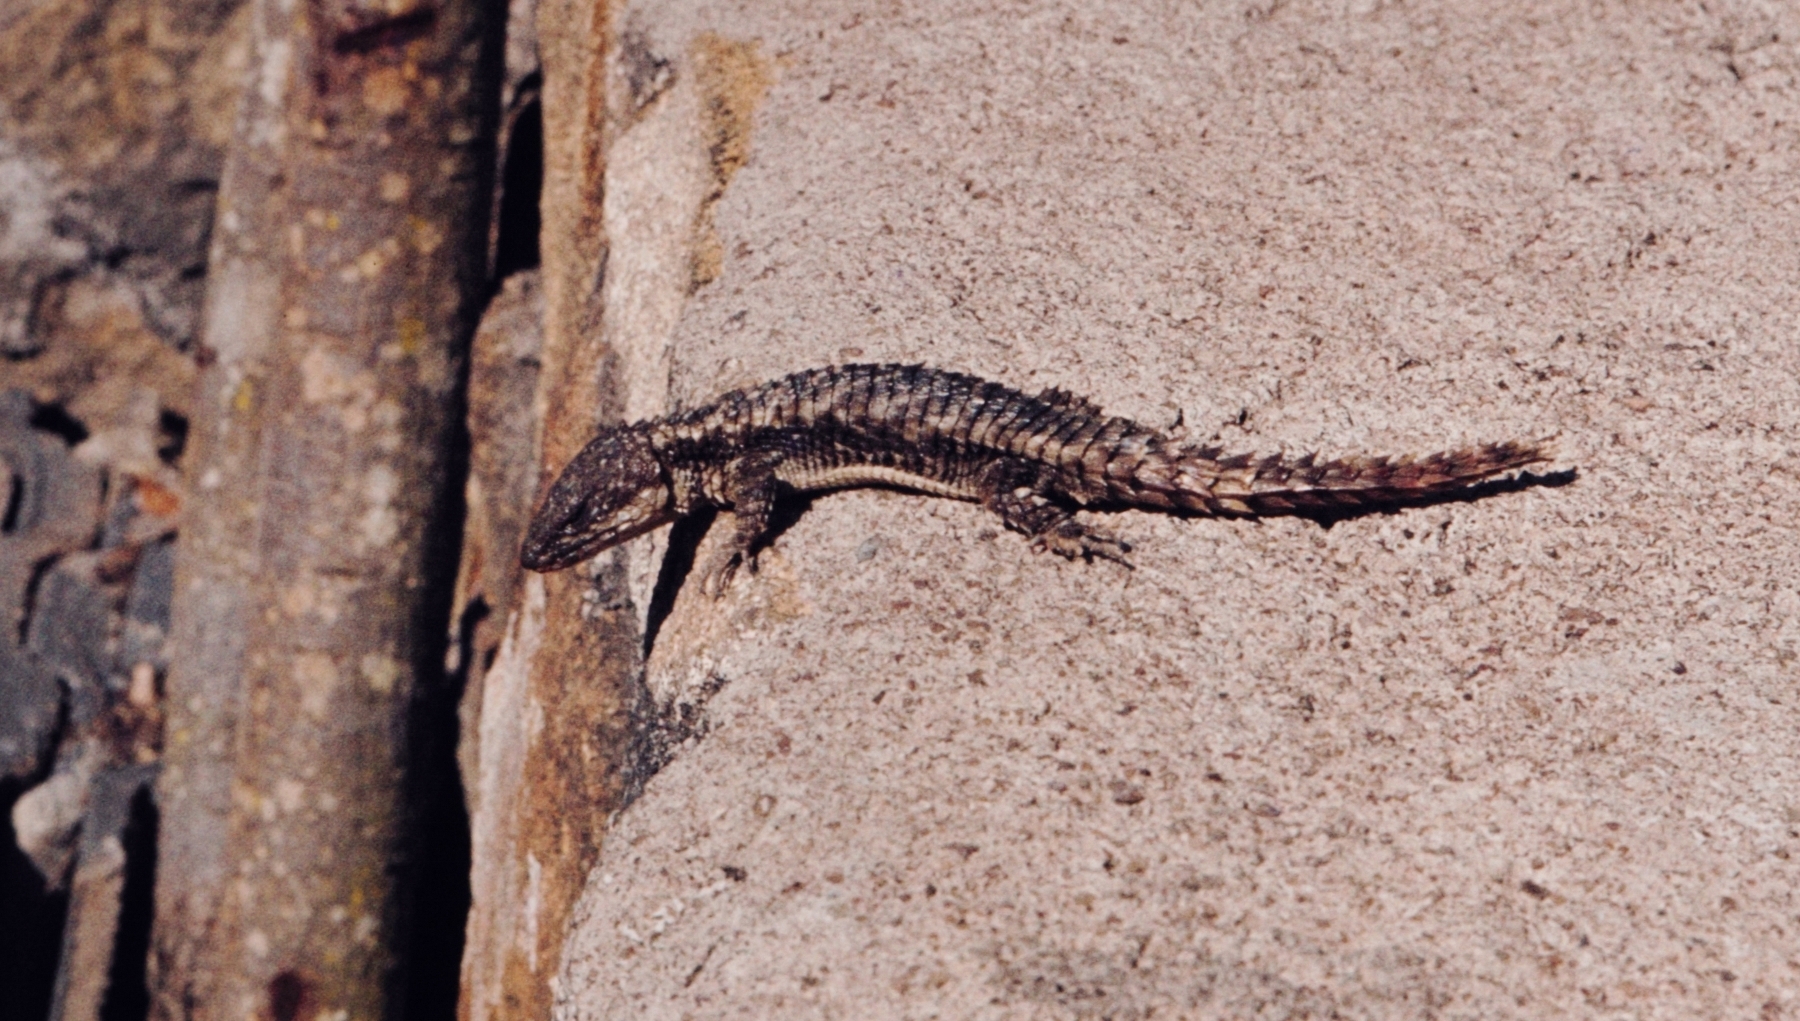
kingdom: Animalia
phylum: Chordata
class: Squamata
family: Cordylidae
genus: Cordylus
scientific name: Cordylus tropidosternum
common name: Tropical girdled lizard
